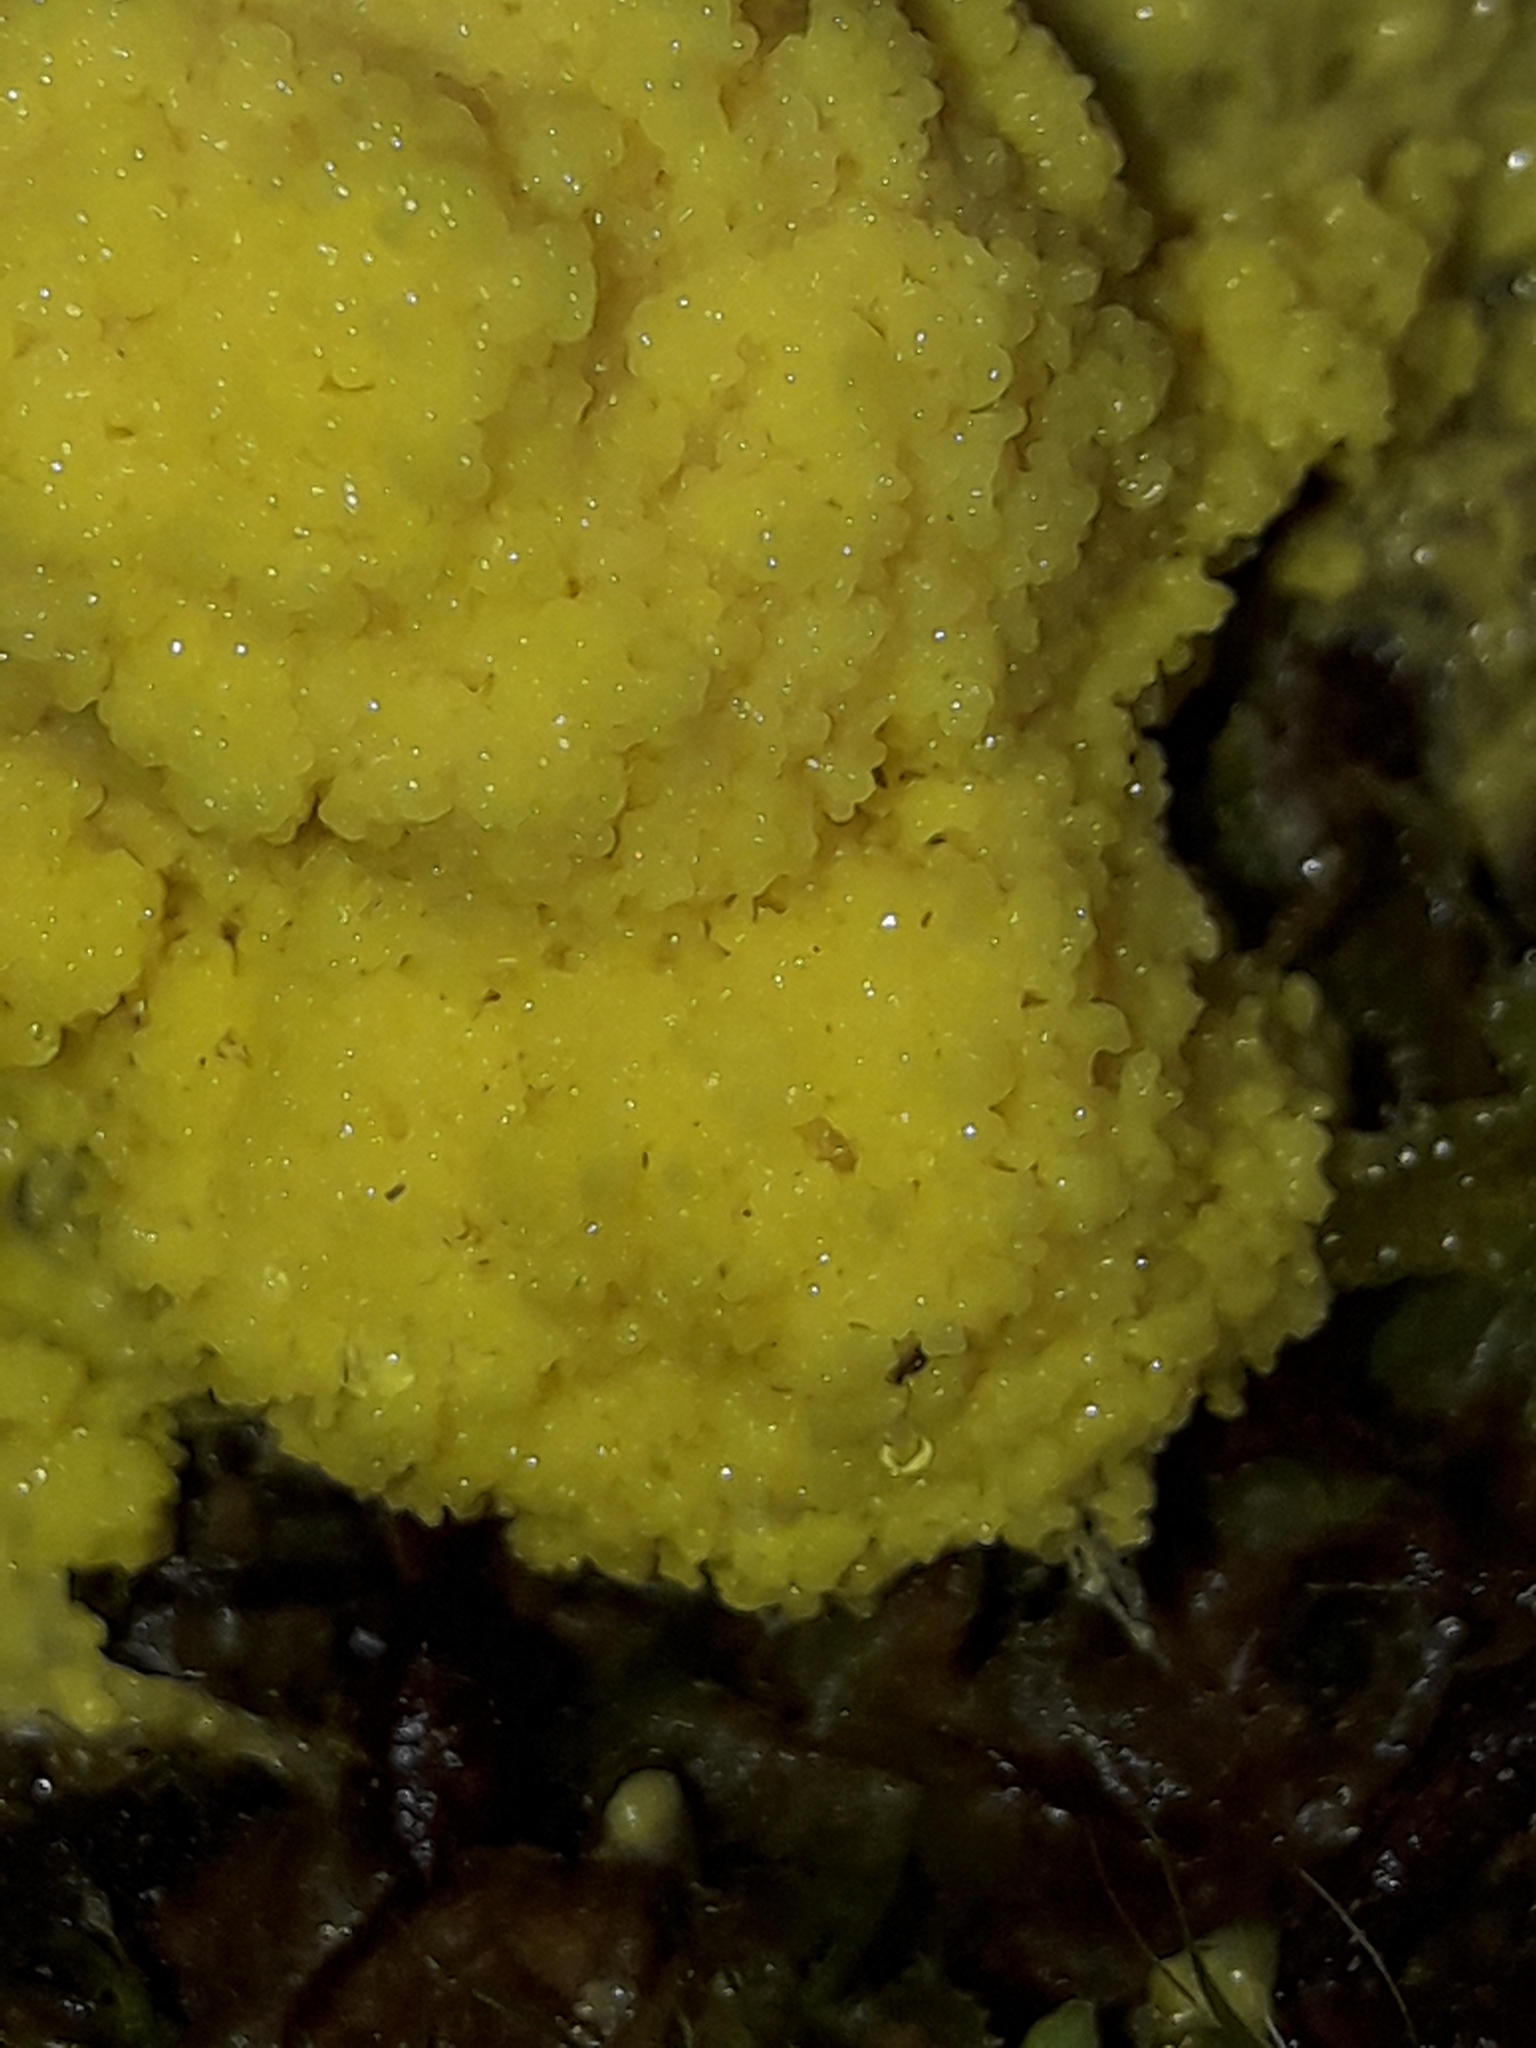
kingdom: Protozoa
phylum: Mycetozoa
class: Myxomycetes
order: Physarales
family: Physaraceae
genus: Fuligo
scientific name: Fuligo septica
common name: Dog vomit slime mold
